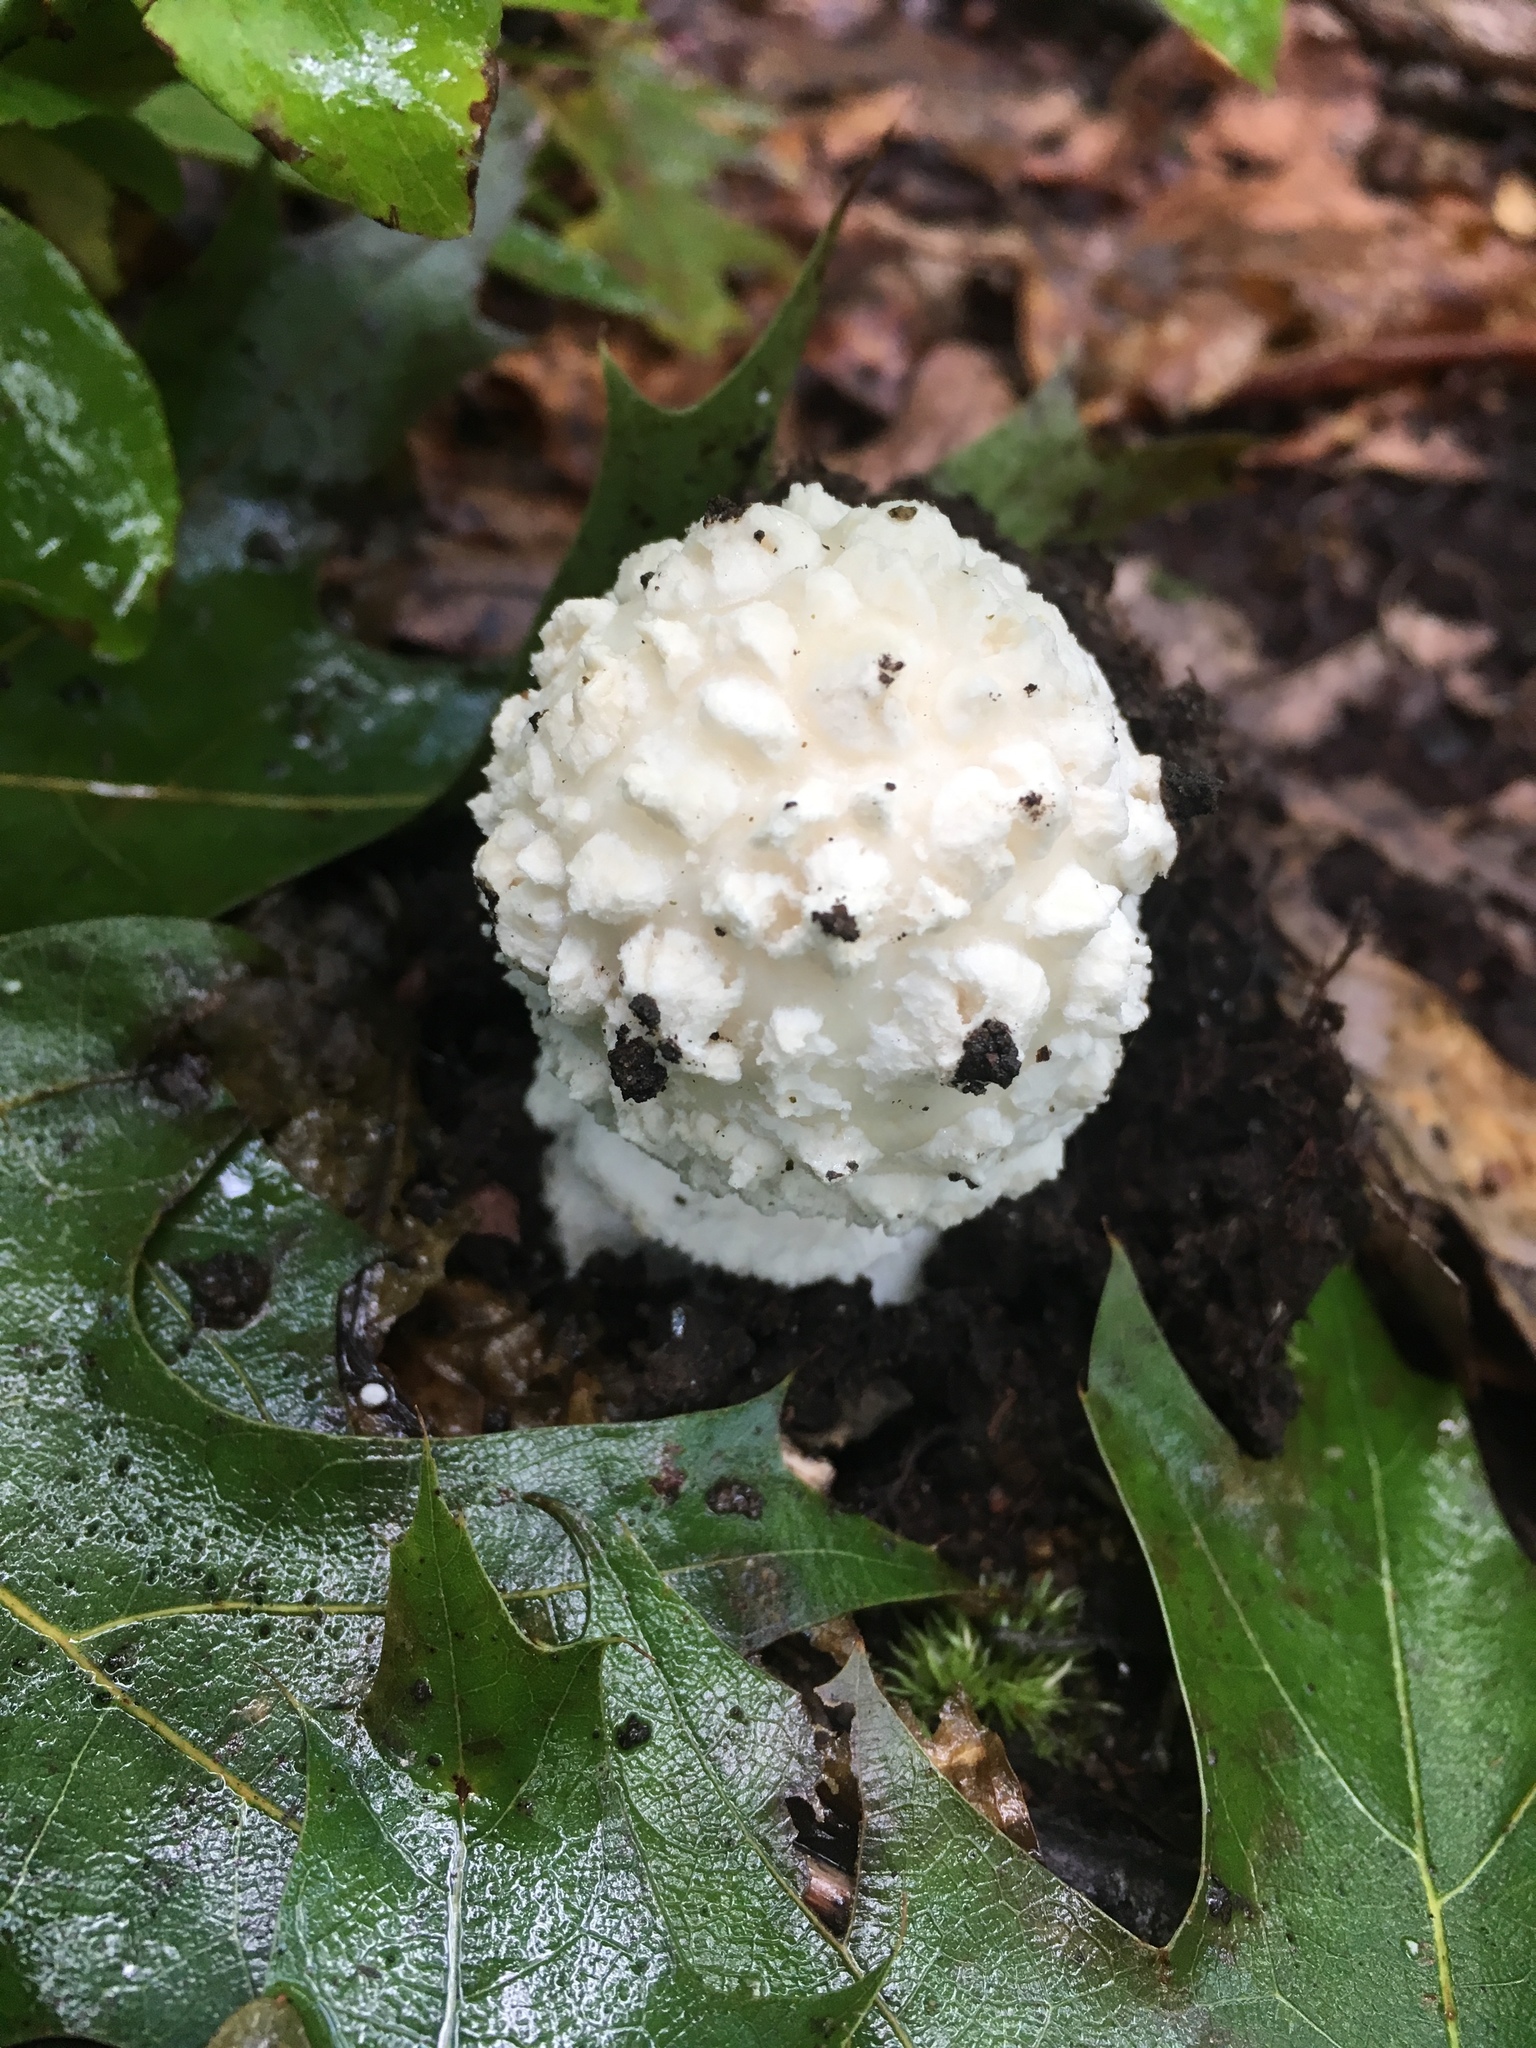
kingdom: Fungi
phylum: Basidiomycota
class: Agaricomycetes
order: Agaricales
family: Amanitaceae
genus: Amanita
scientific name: Amanita cokeri
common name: Coker's amanita
